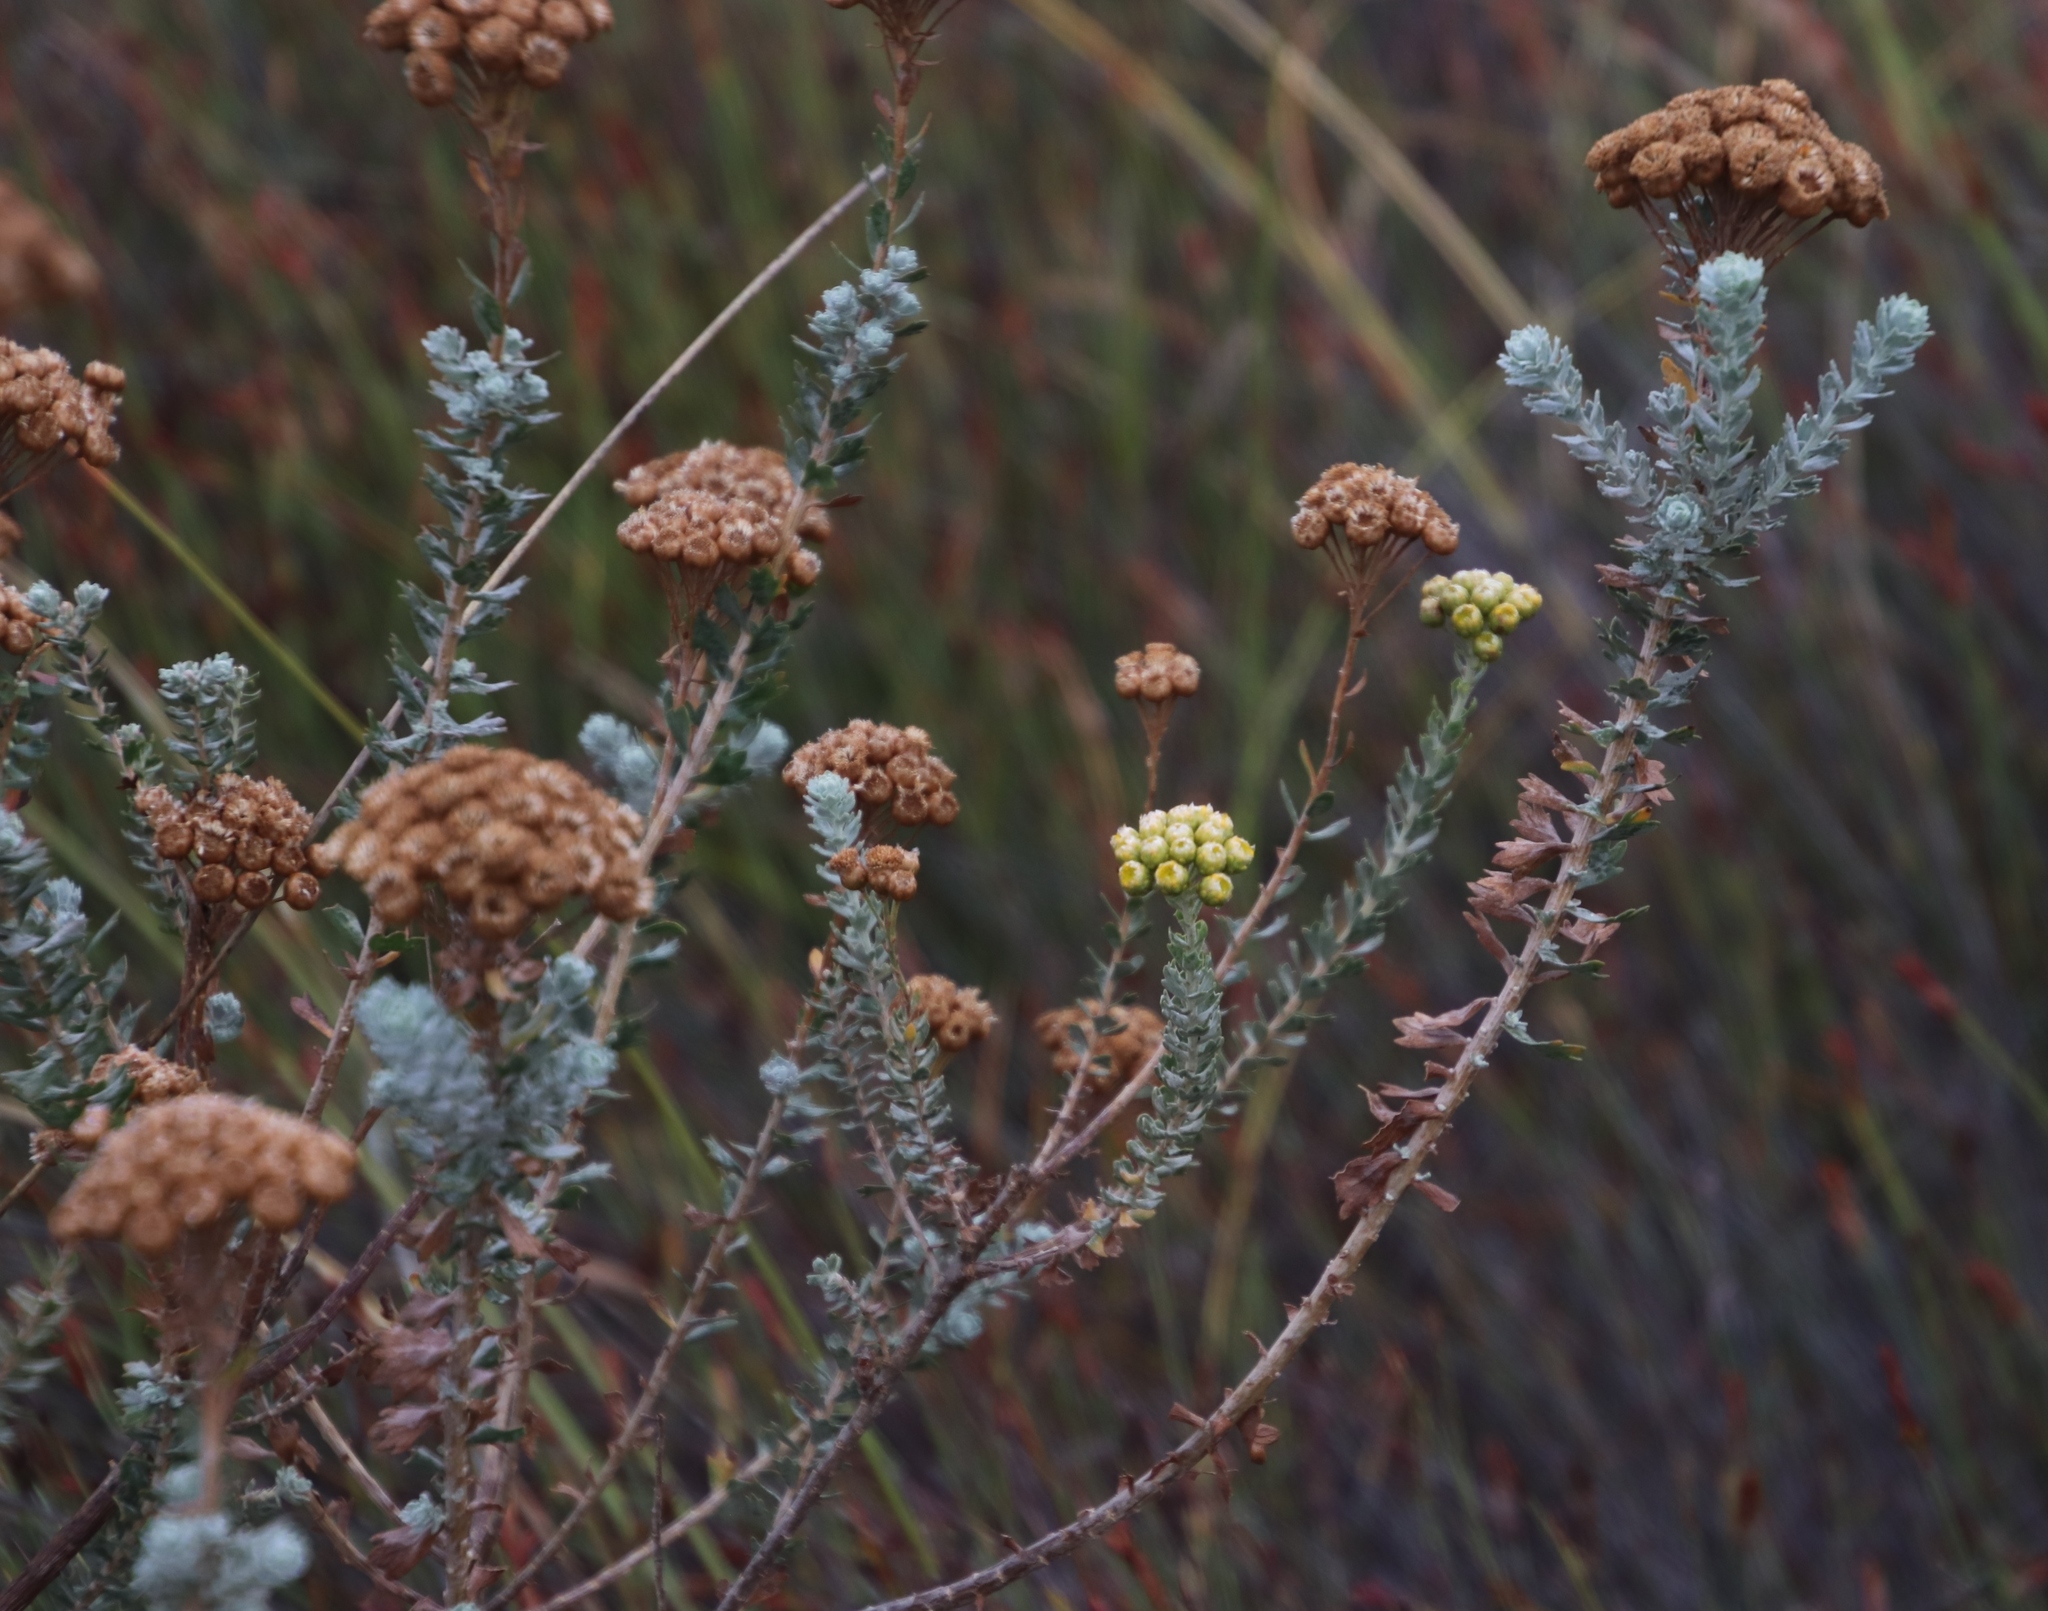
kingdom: Plantae
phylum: Tracheophyta
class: Magnoliopsida
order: Asterales
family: Asteraceae
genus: Athanasia
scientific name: Athanasia trifurcata
